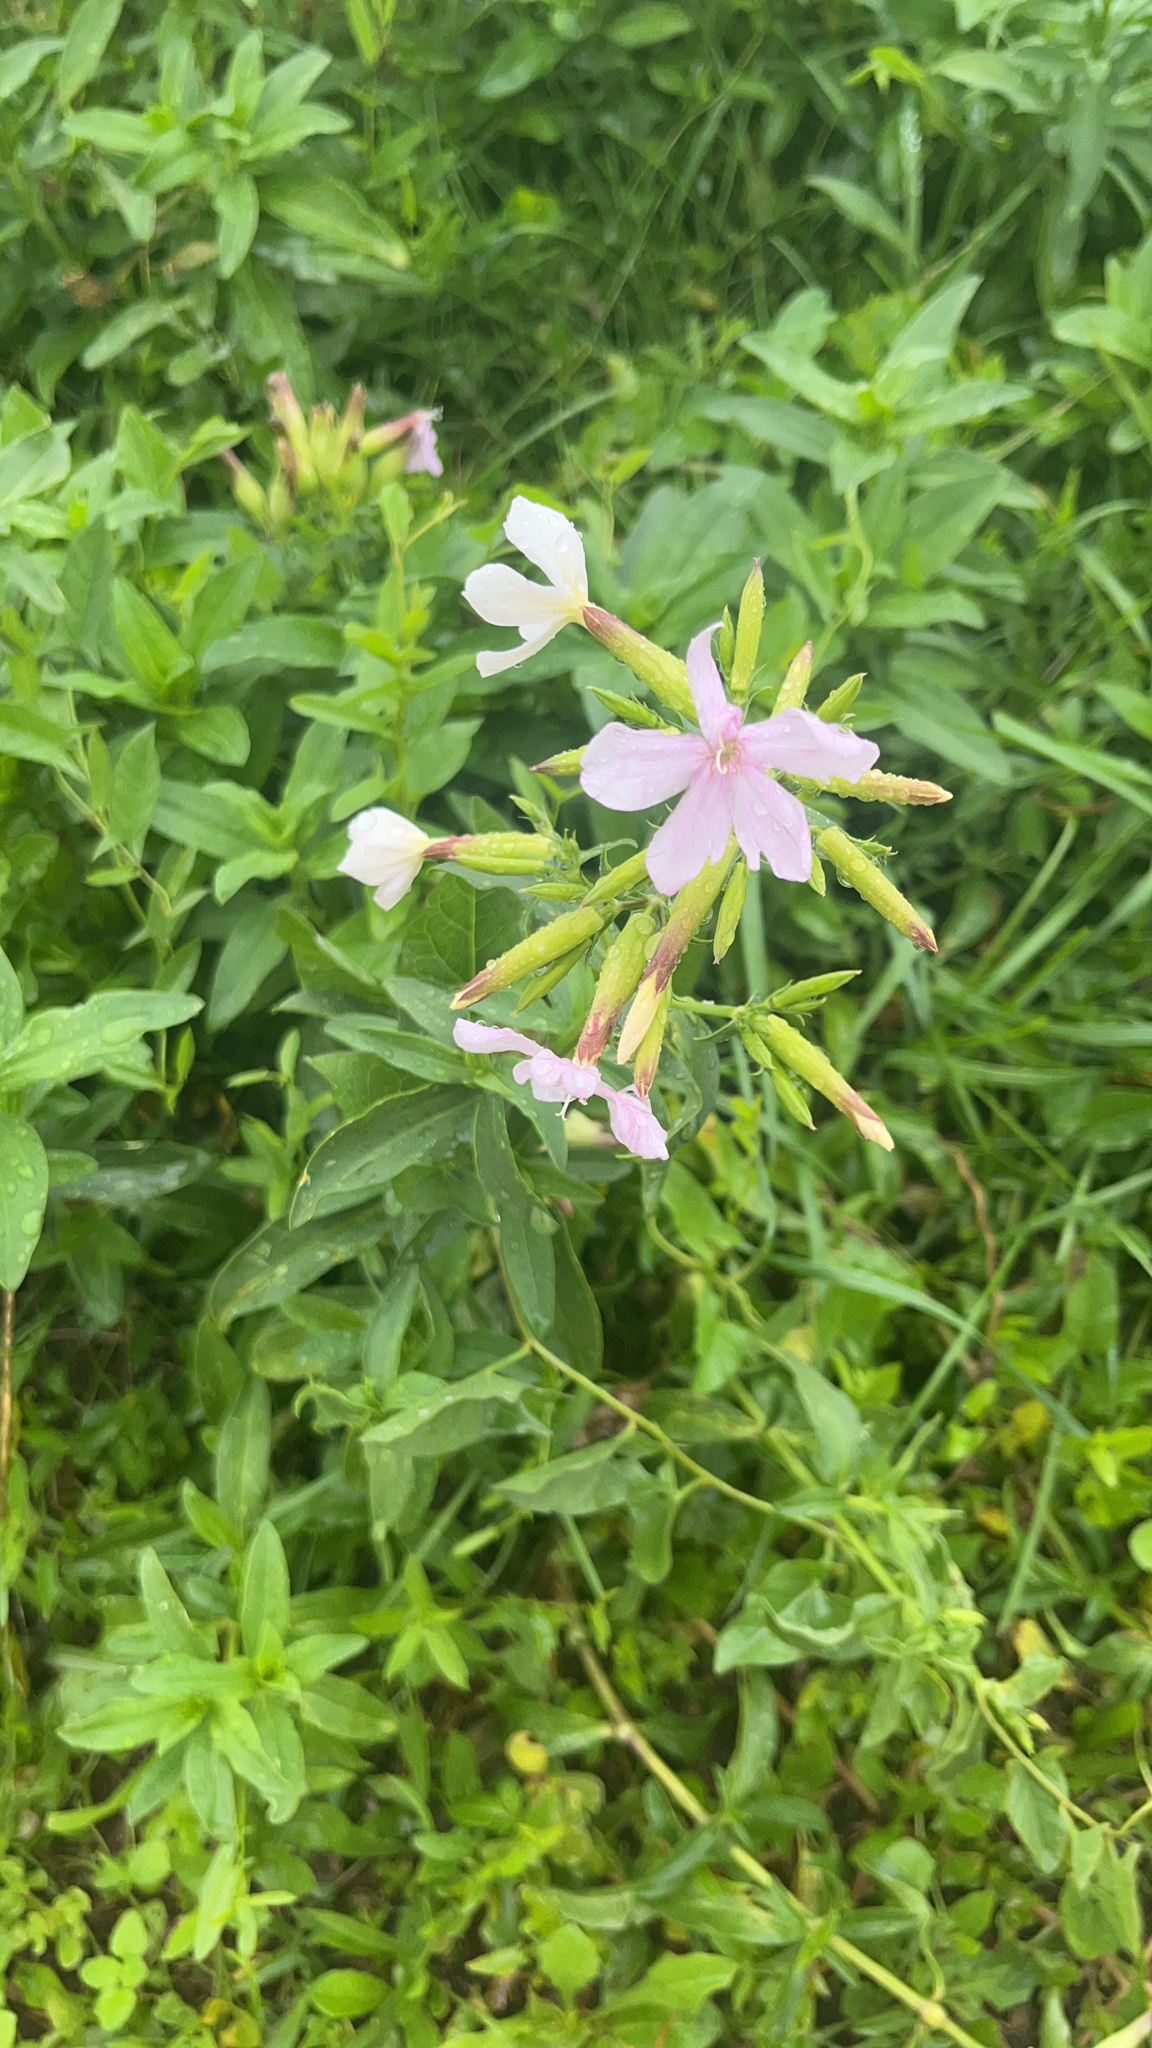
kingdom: Plantae
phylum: Tracheophyta
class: Magnoliopsida
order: Caryophyllales
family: Caryophyllaceae
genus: Saponaria
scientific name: Saponaria officinalis
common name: Soapwort
